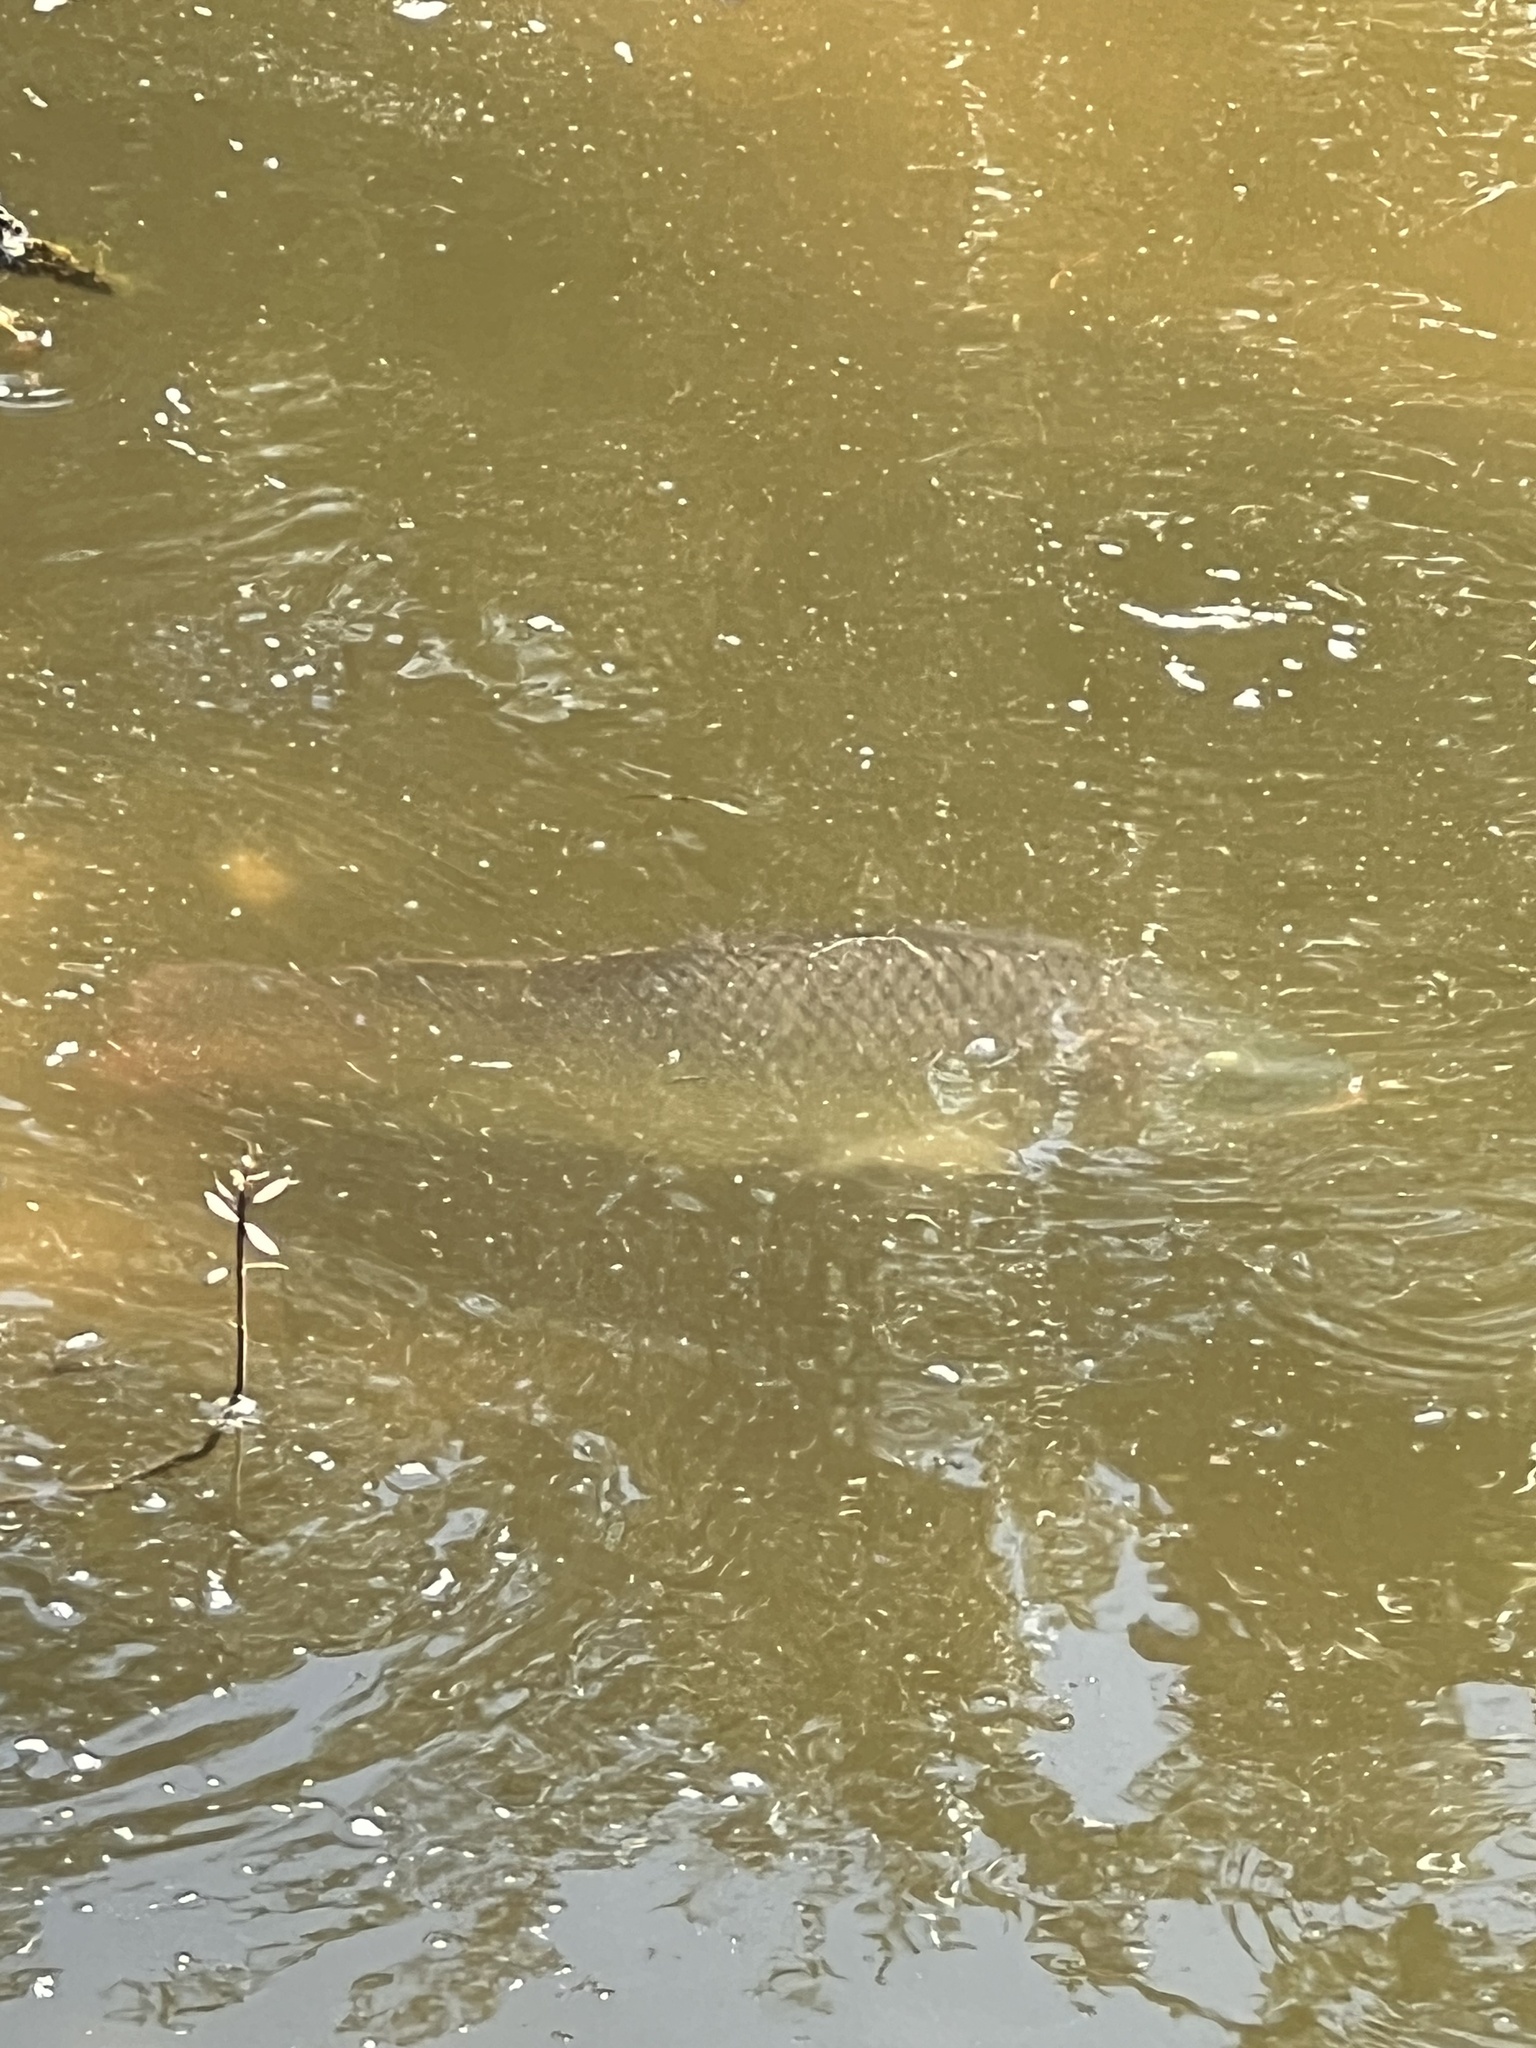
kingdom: Animalia
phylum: Chordata
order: Perciformes
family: Cichlidae
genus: Oreochromis
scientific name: Oreochromis aureus
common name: Blue tilapia
